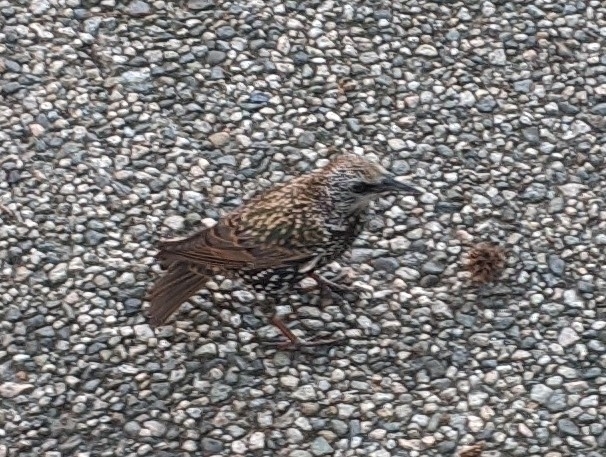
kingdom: Animalia
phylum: Chordata
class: Aves
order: Passeriformes
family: Sturnidae
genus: Sturnus
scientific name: Sturnus vulgaris
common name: Common starling
